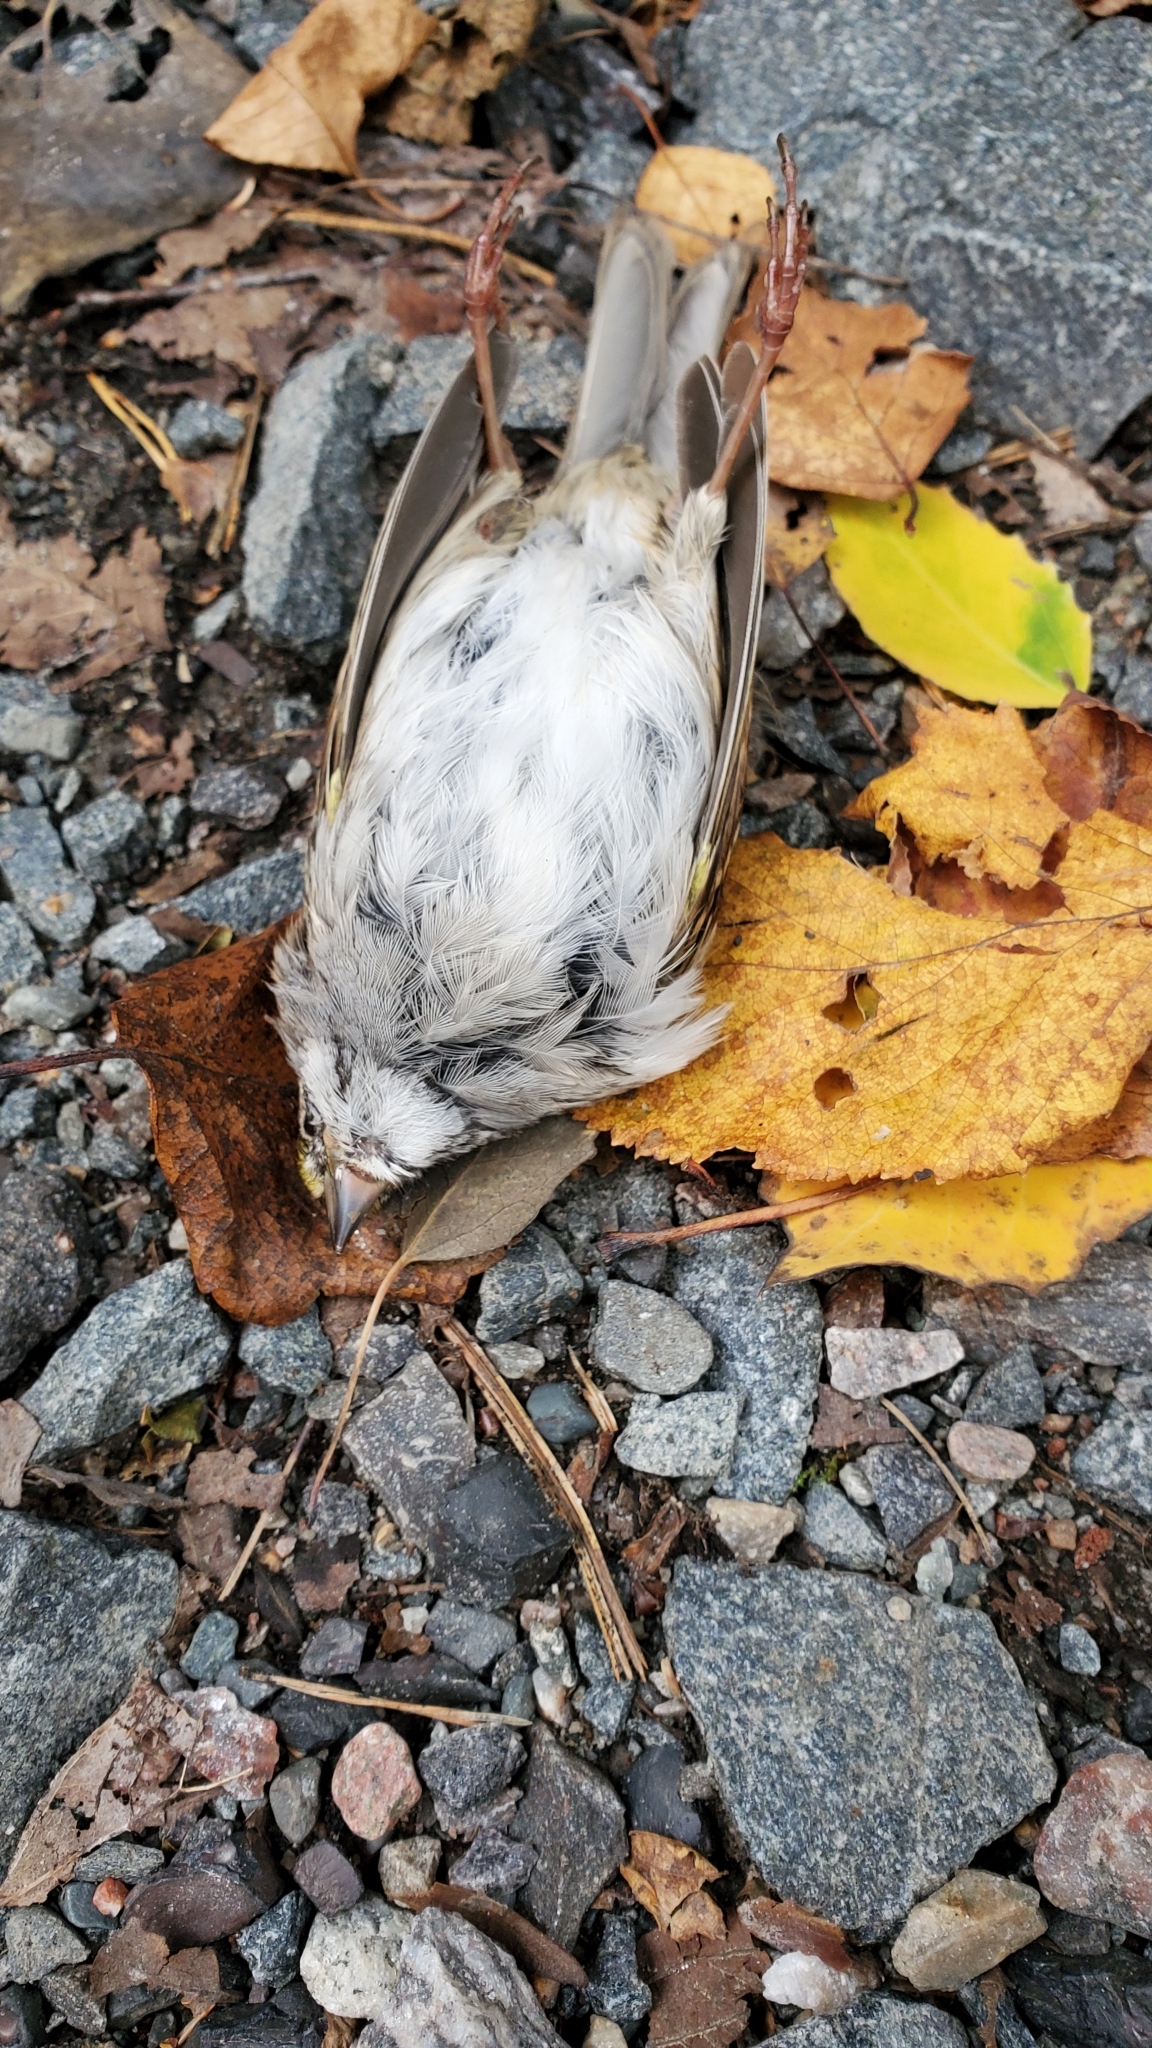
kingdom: Animalia
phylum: Chordata
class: Aves
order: Passeriformes
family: Passerellidae
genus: Zonotrichia
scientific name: Zonotrichia albicollis
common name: White-throated sparrow
